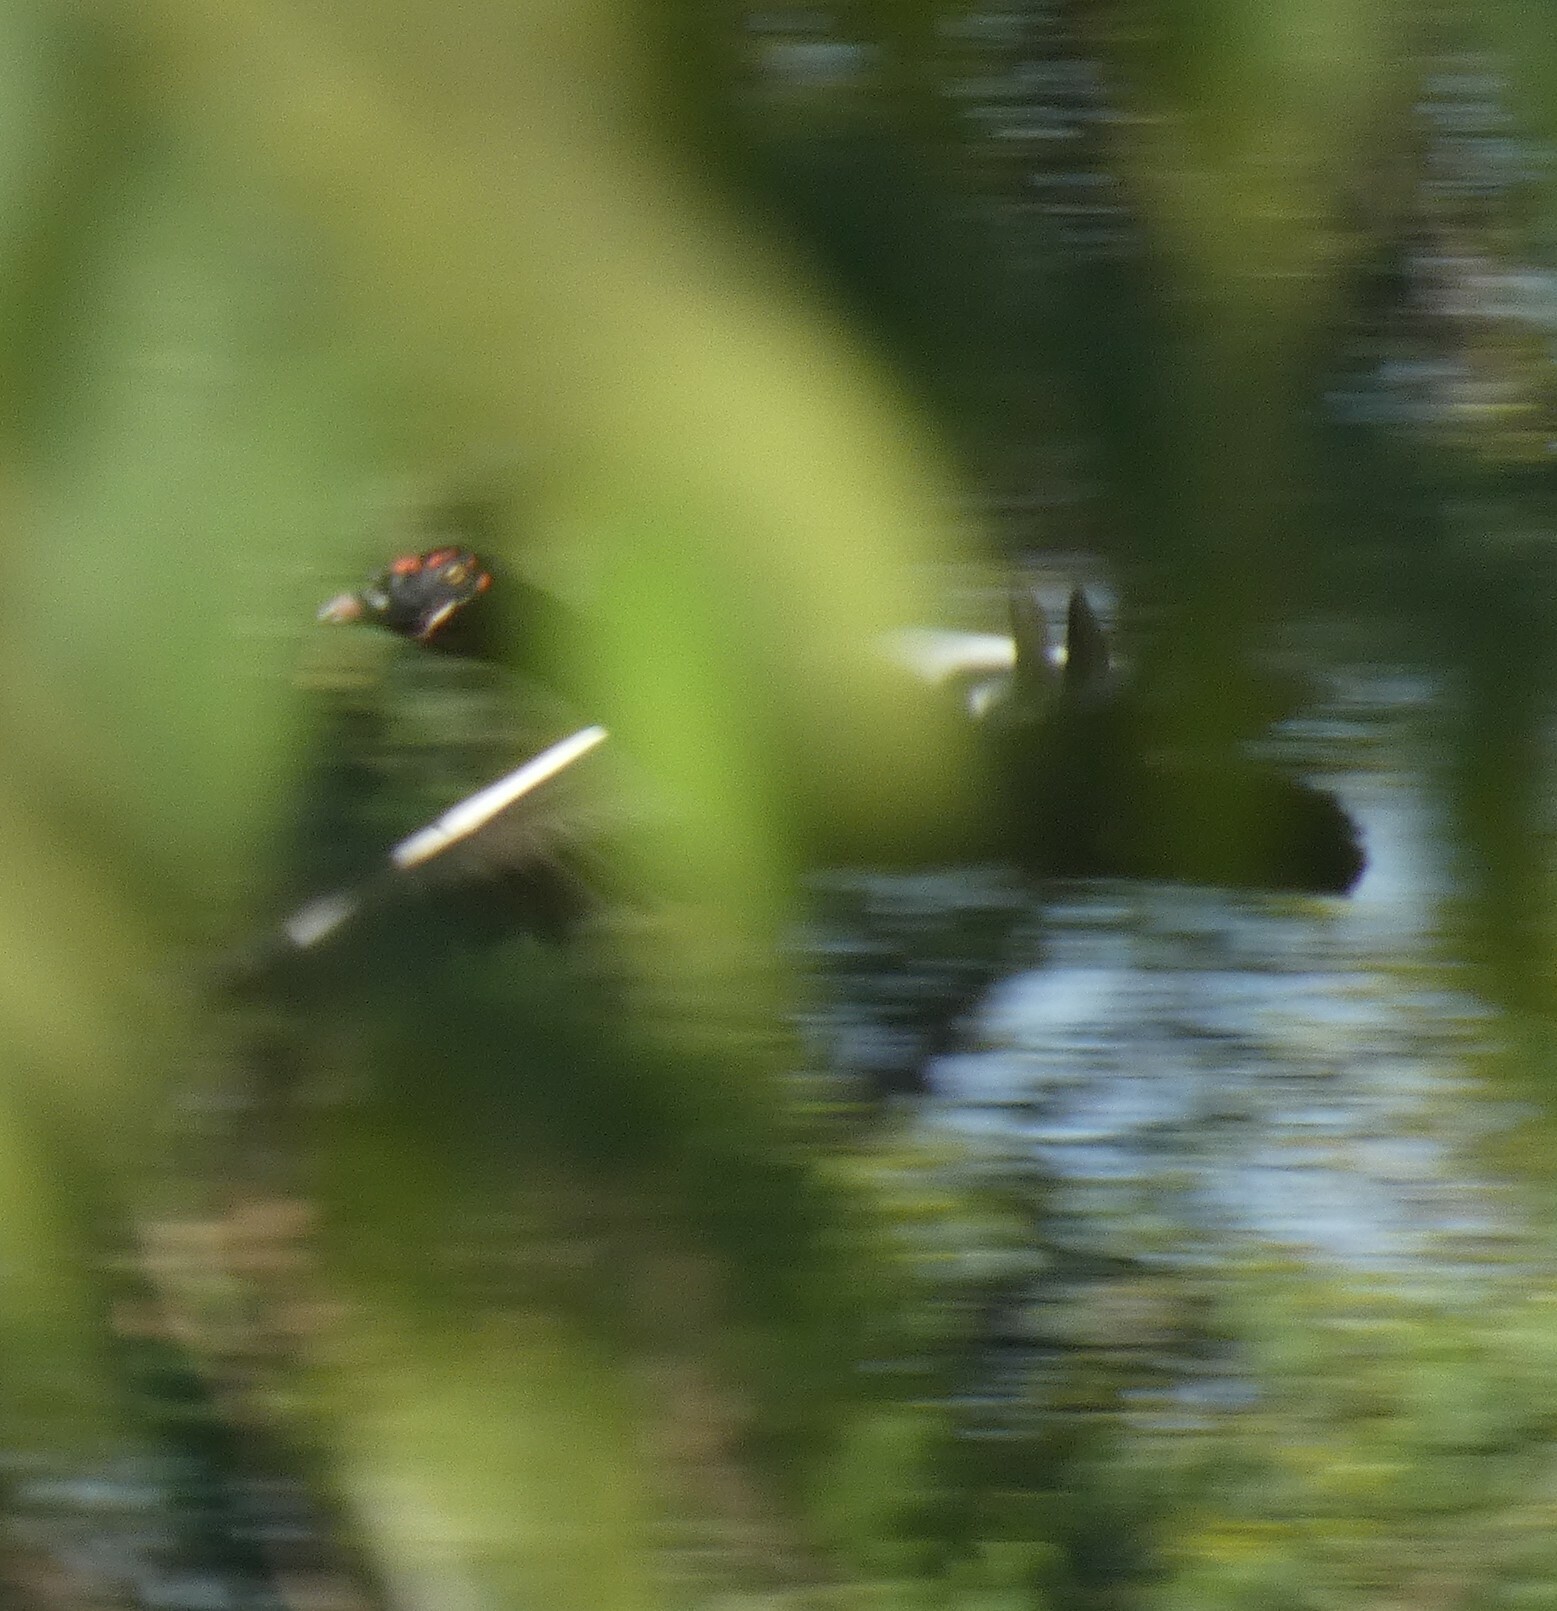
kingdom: Animalia
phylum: Chordata
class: Aves
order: Anseriformes
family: Anatidae
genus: Cairina
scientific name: Cairina moschata
